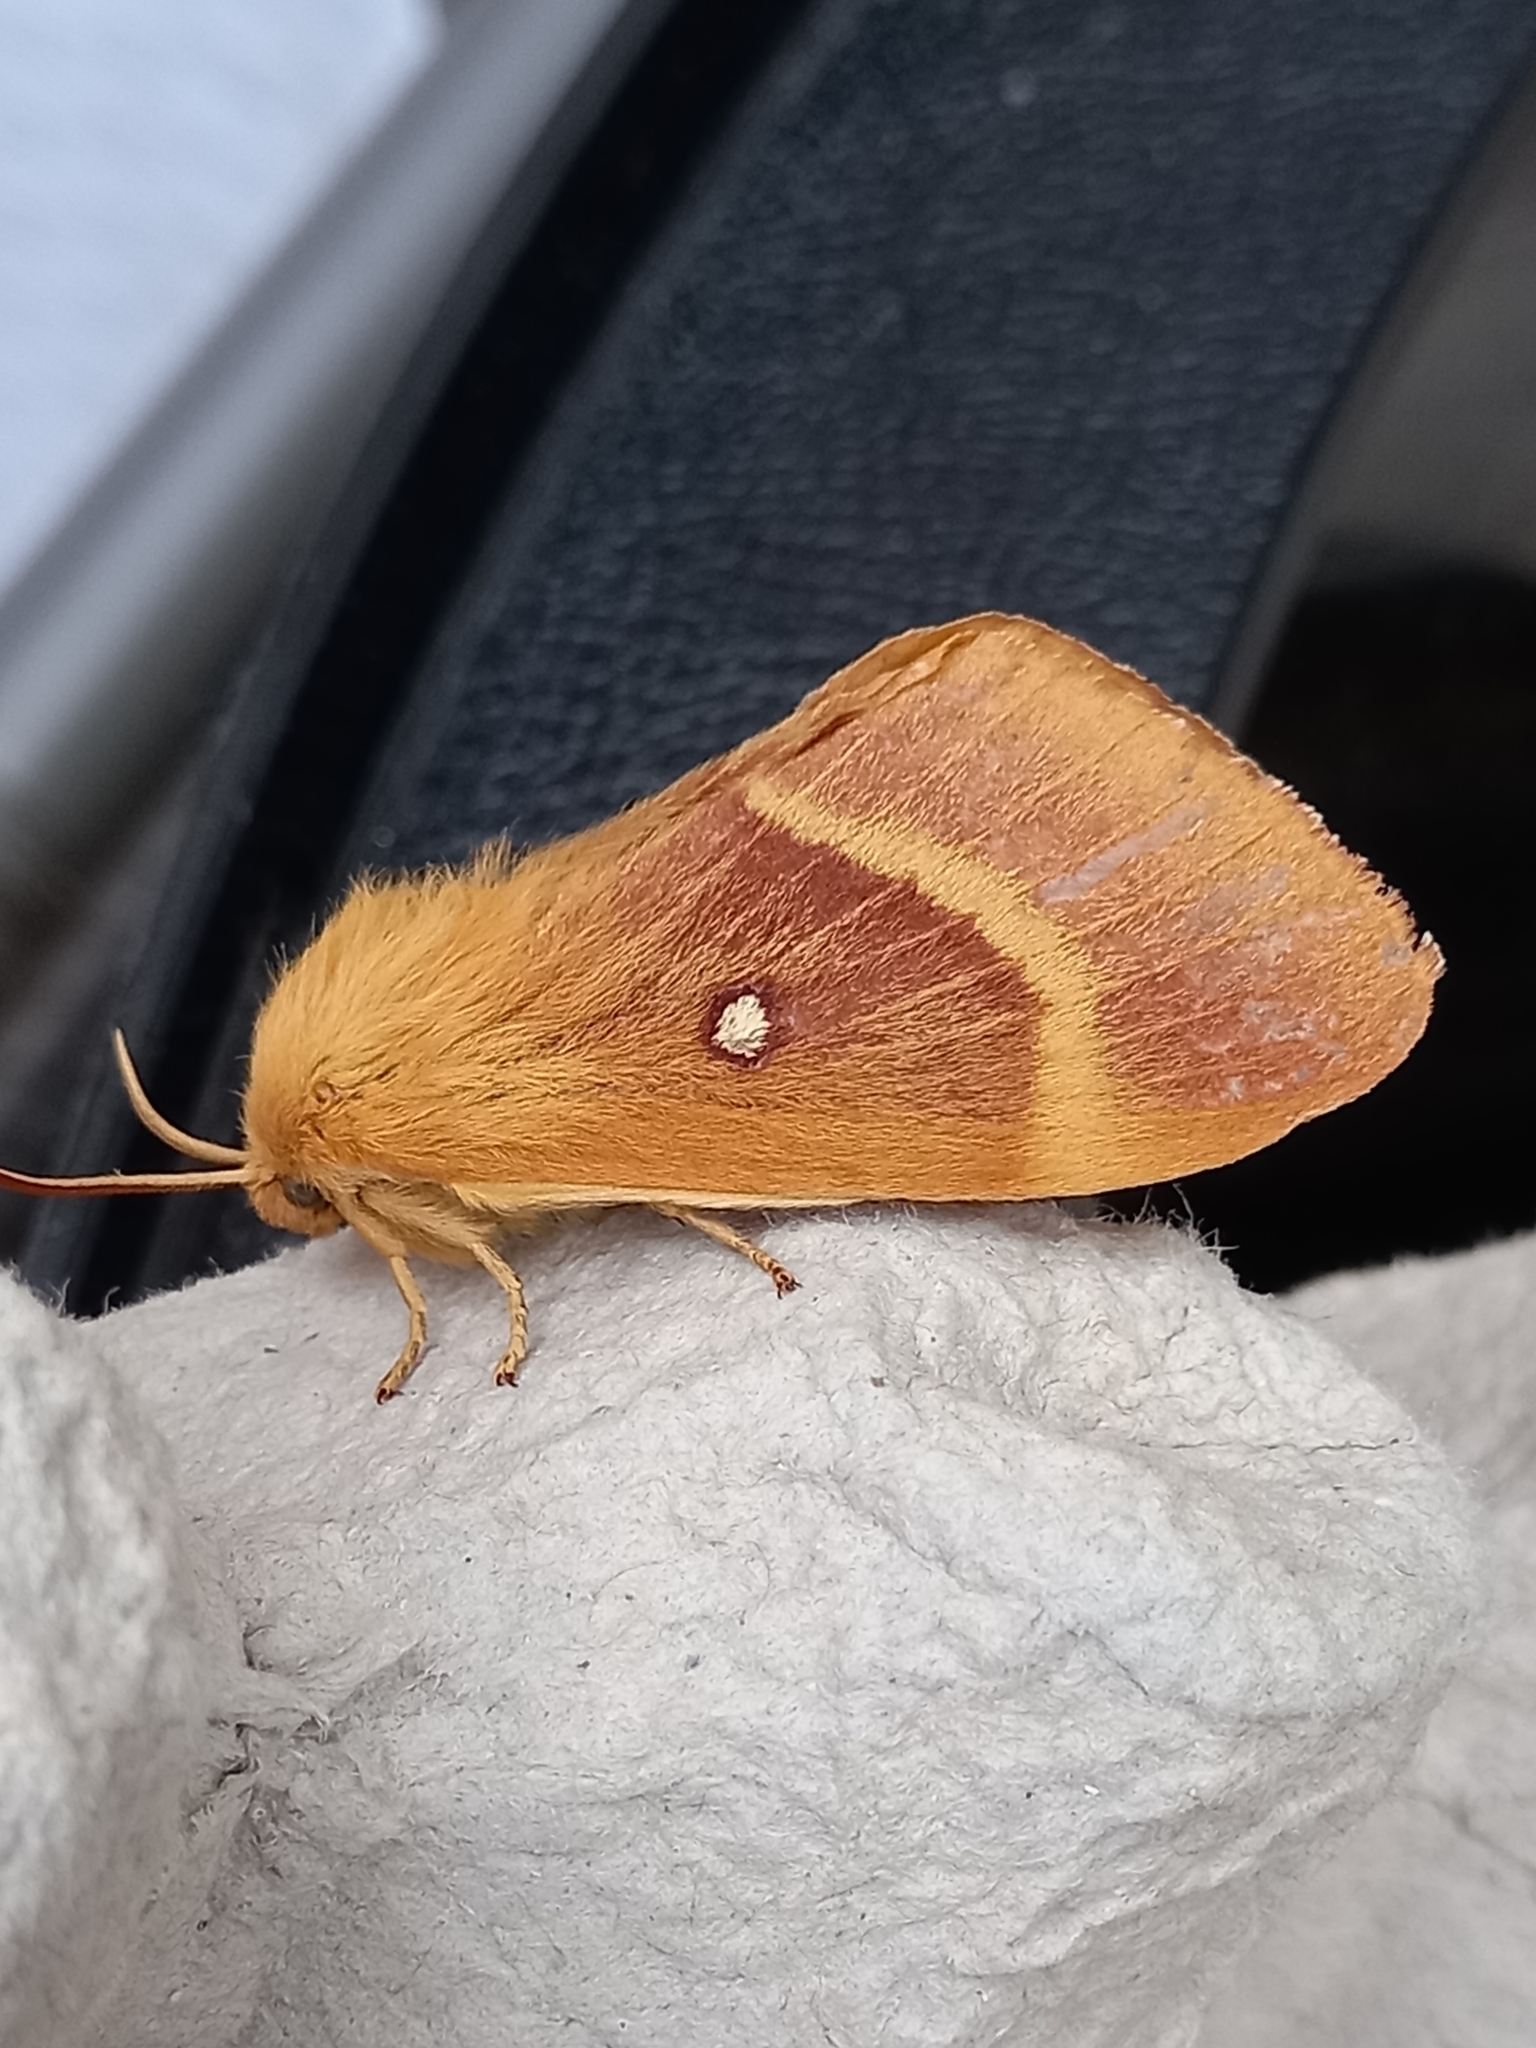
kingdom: Animalia
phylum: Arthropoda
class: Insecta
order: Lepidoptera
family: Lasiocampidae
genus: Lasiocampa
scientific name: Lasiocampa quercus
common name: Oak eggar
